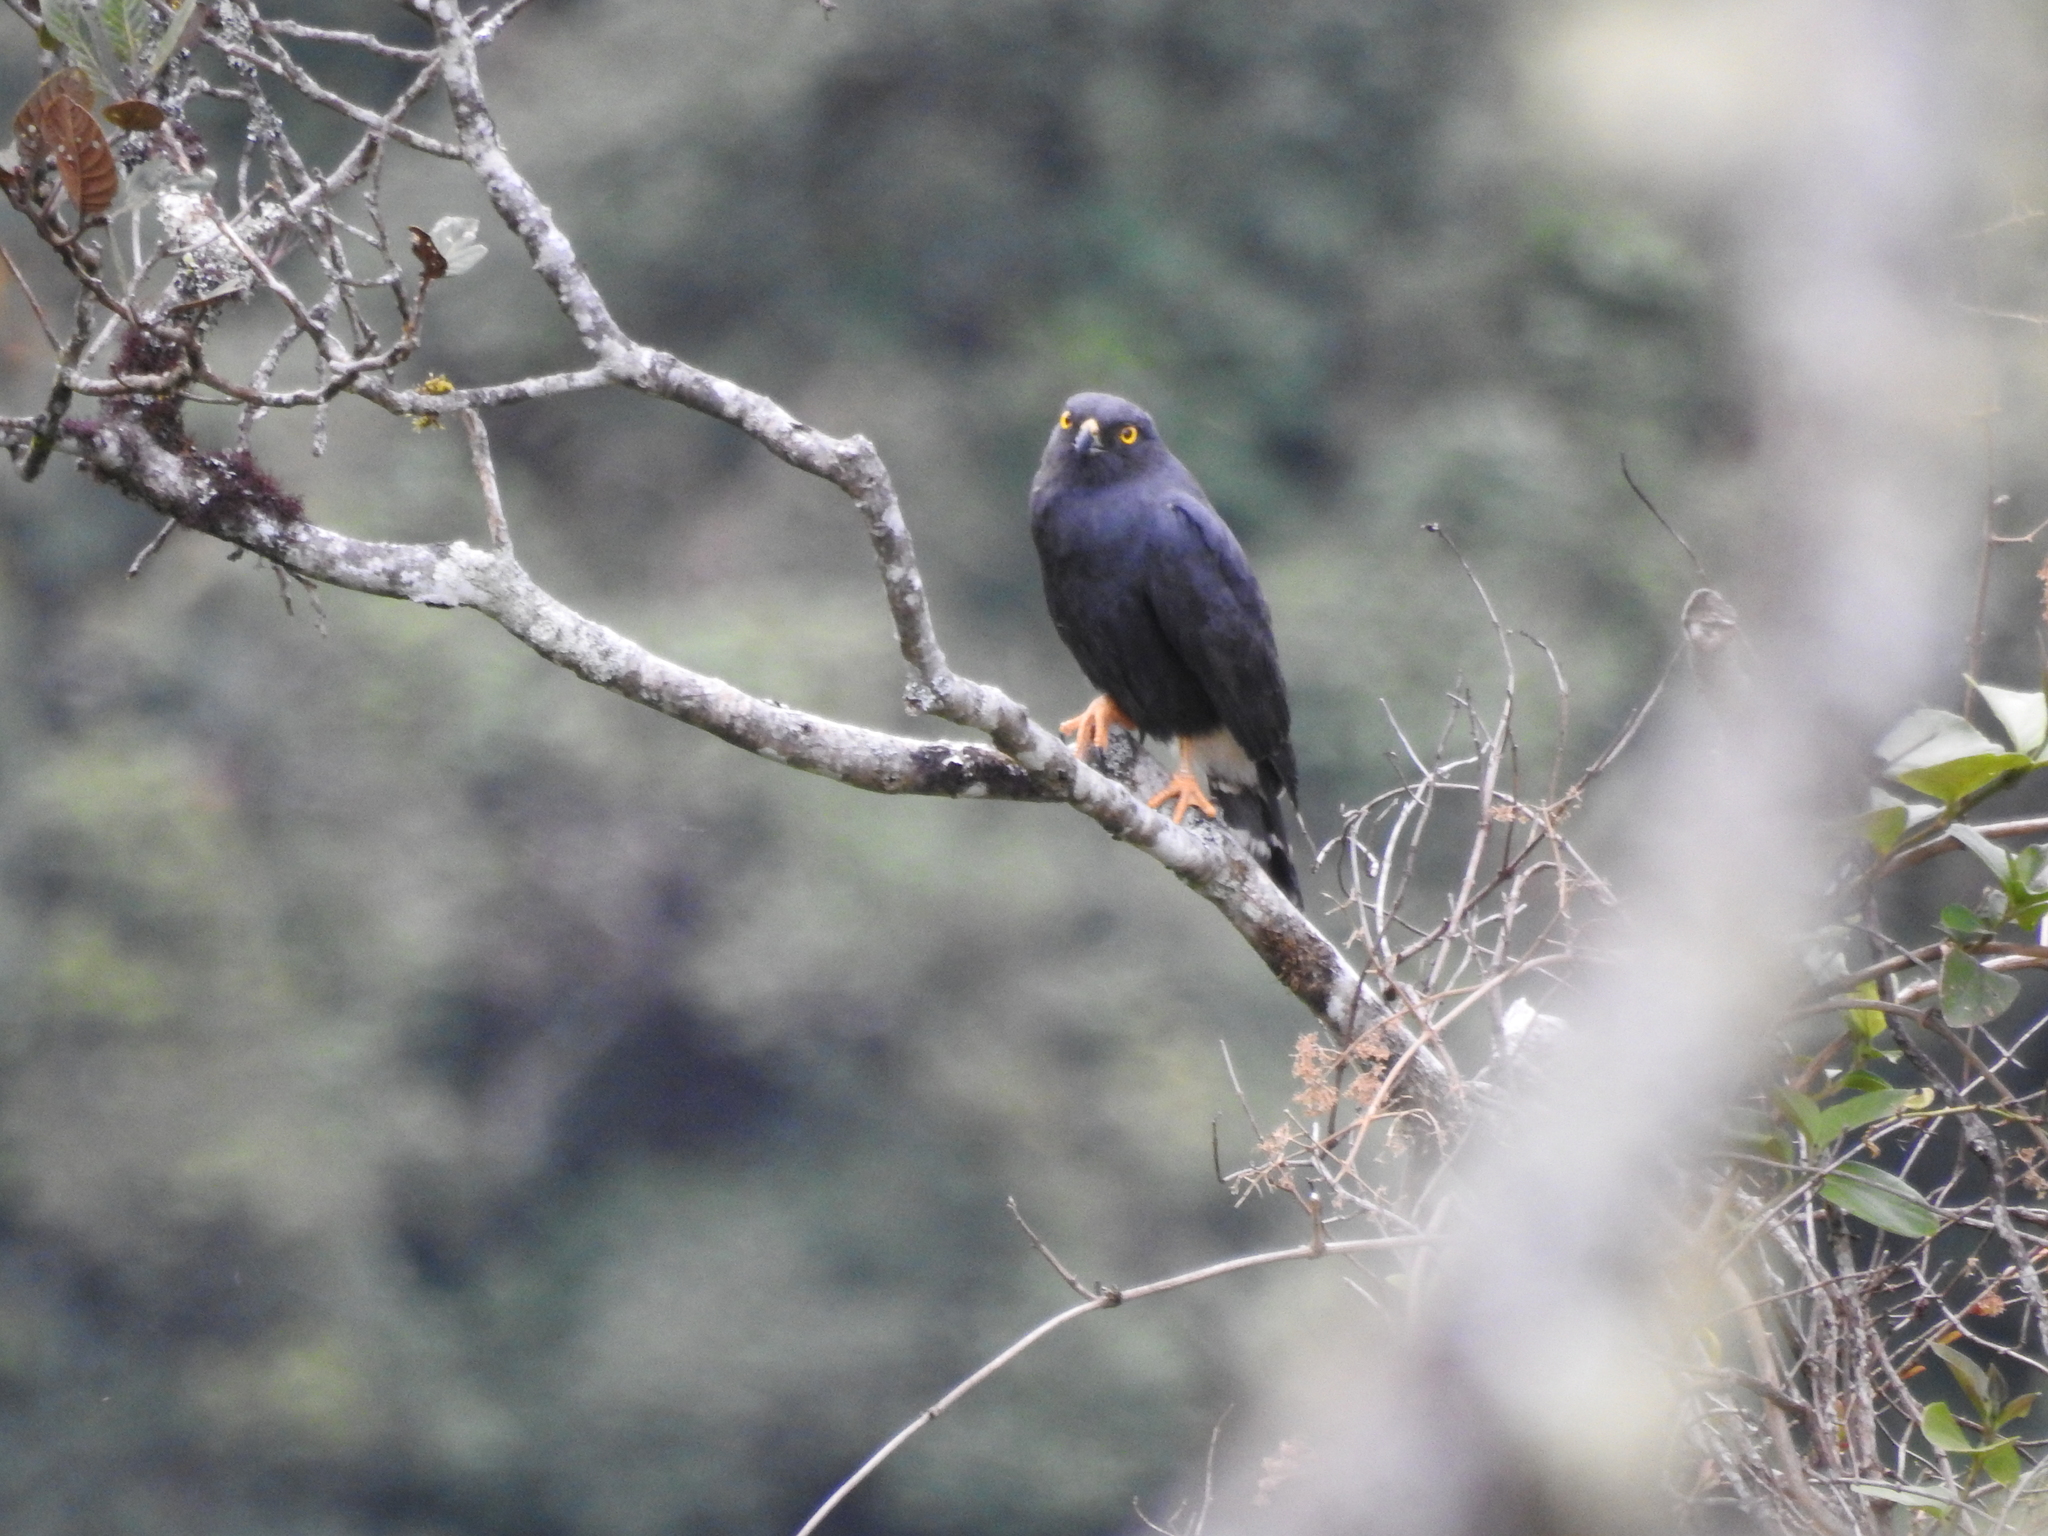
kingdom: Animalia
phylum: Chordata
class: Aves
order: Accipitriformes
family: Accipitridae
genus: Percnohierax
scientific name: Percnohierax leucorrhous
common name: White-rumped hawk
